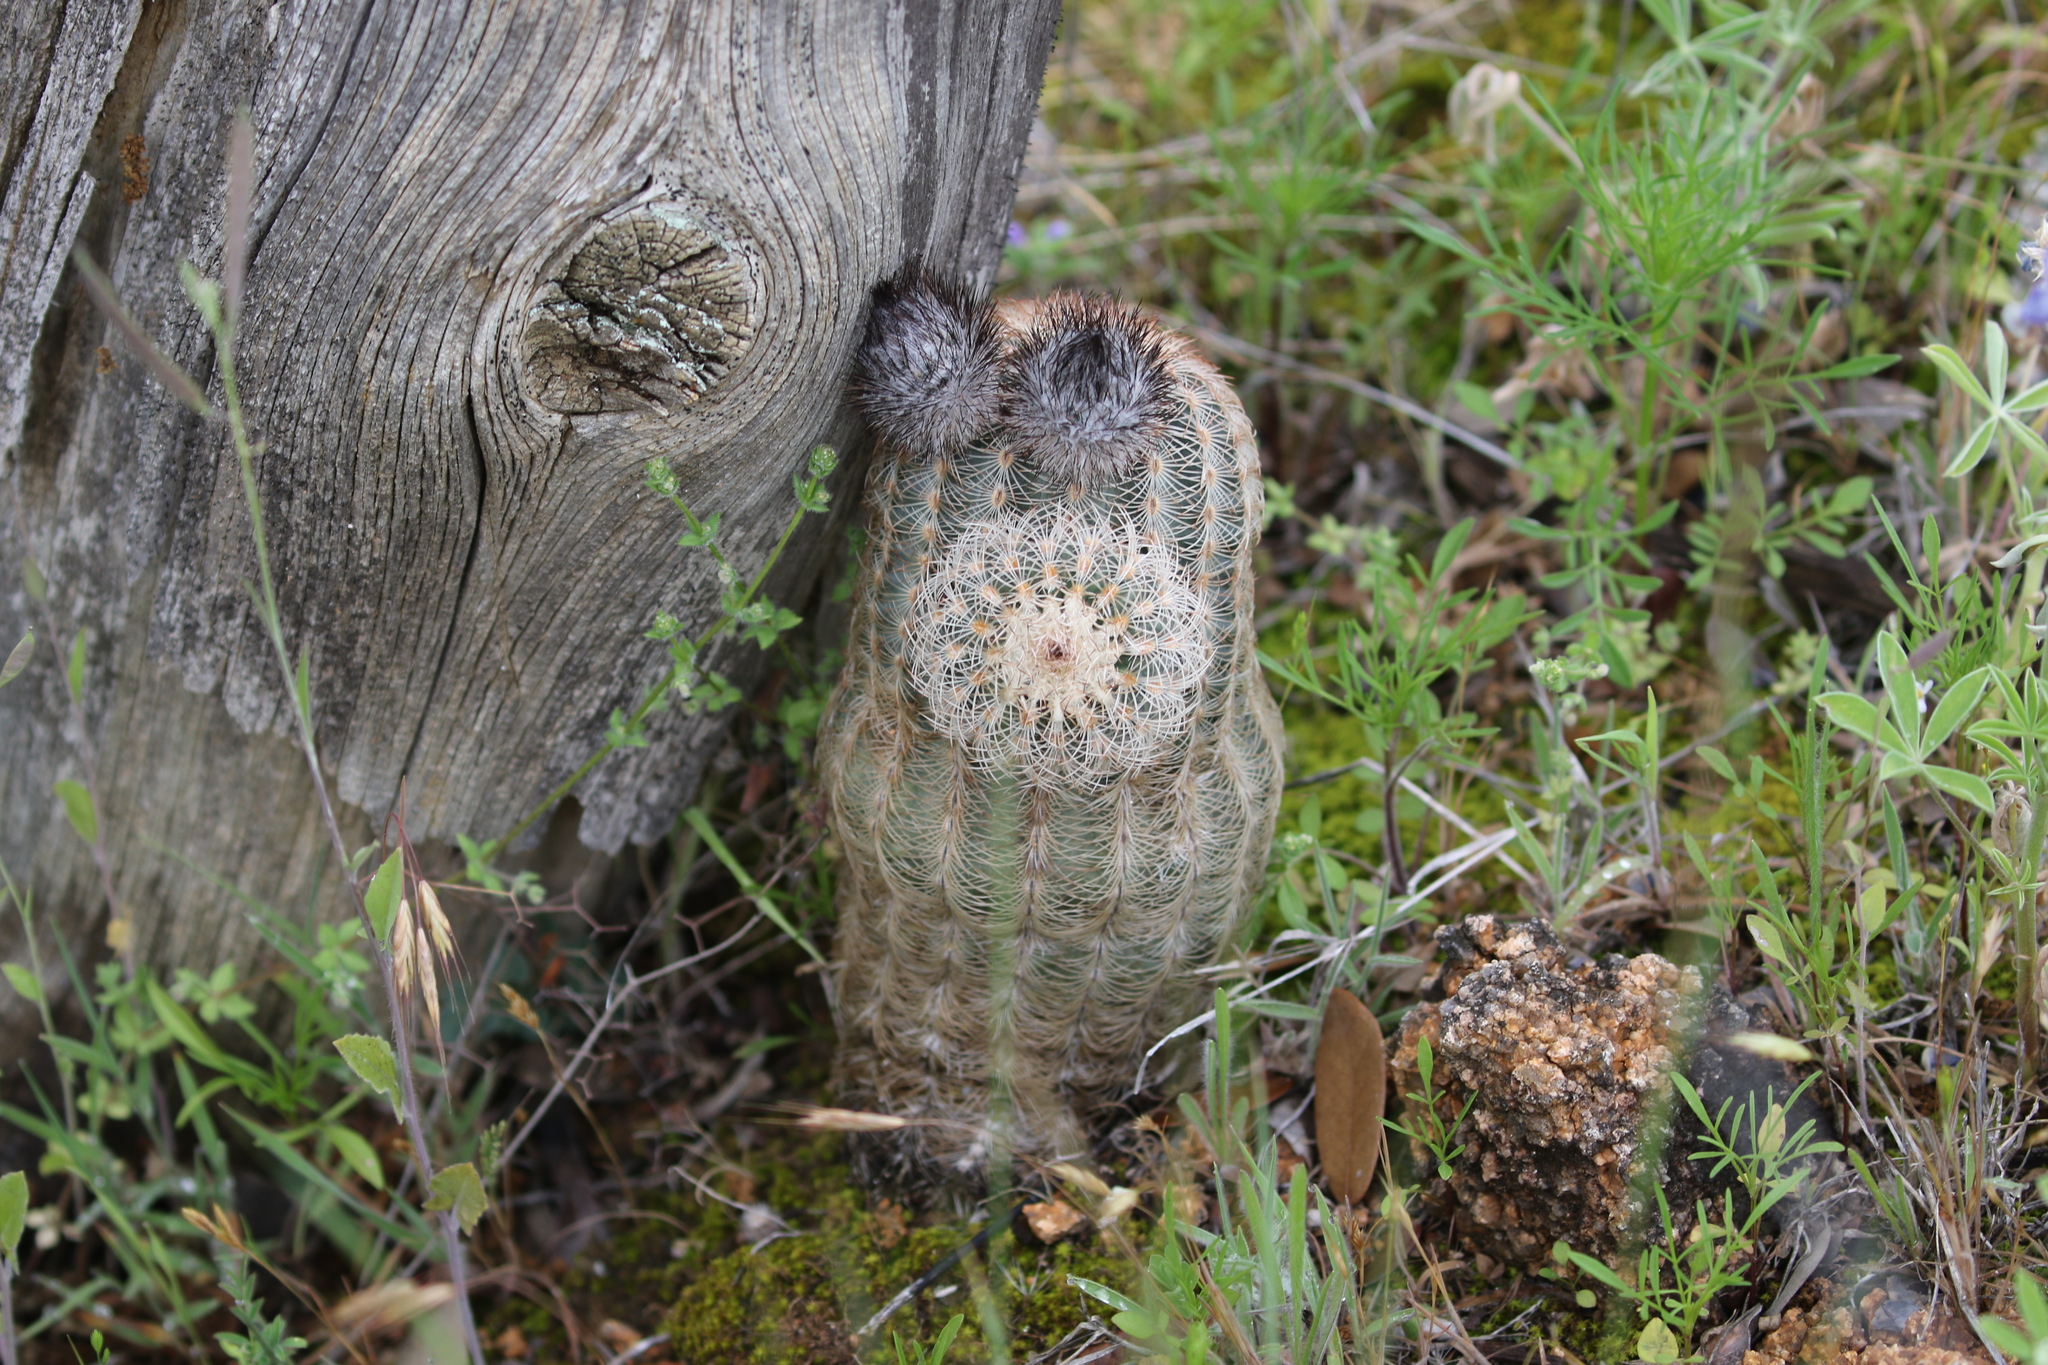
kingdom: Plantae
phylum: Tracheophyta
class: Magnoliopsida
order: Caryophyllales
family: Cactaceae
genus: Echinocereus
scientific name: Echinocereus reichenbachii
